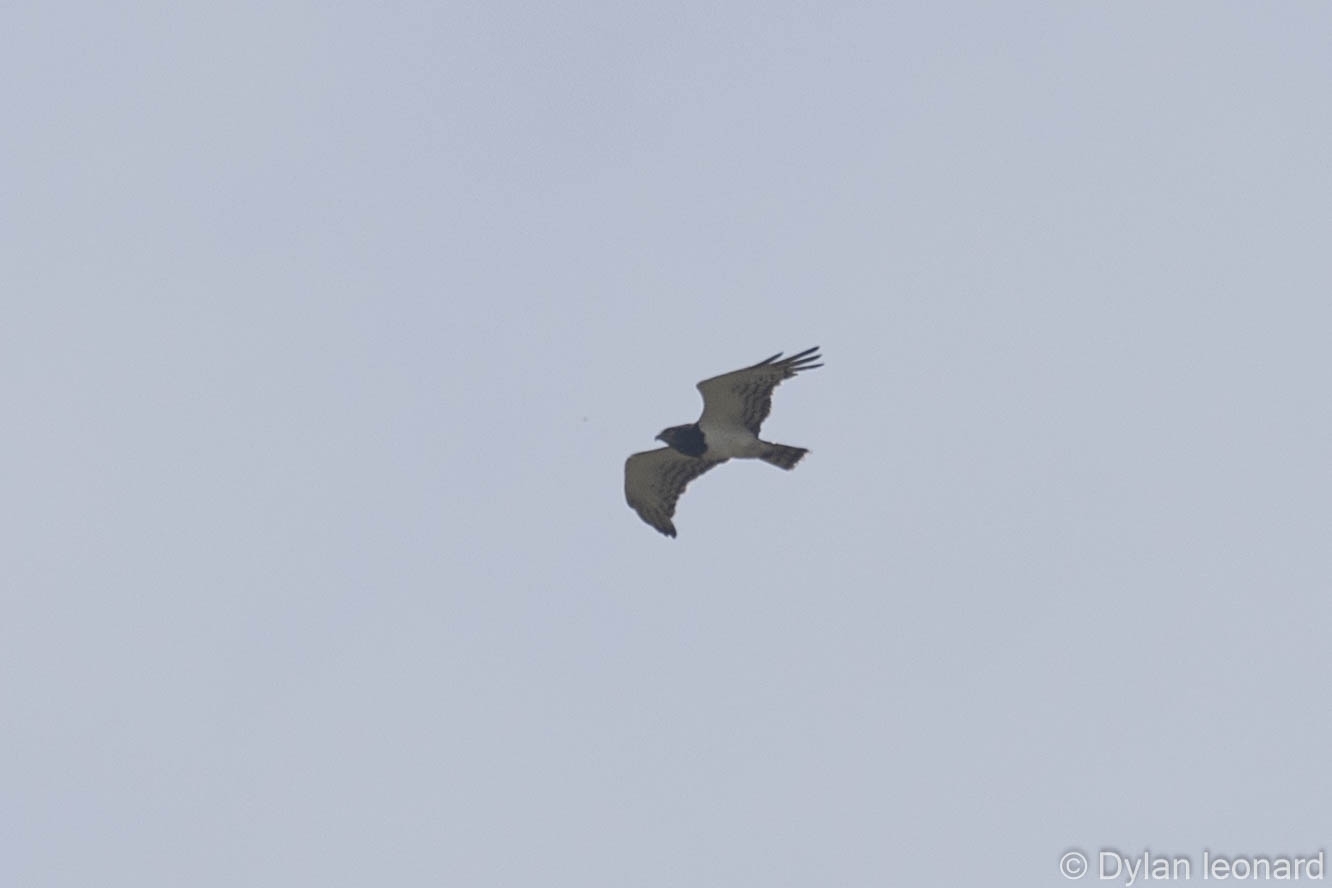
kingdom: Animalia
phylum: Chordata
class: Aves
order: Accipitriformes
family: Accipitridae
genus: Circaetus
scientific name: Circaetus pectoralis
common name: Black-chested snake eagle
